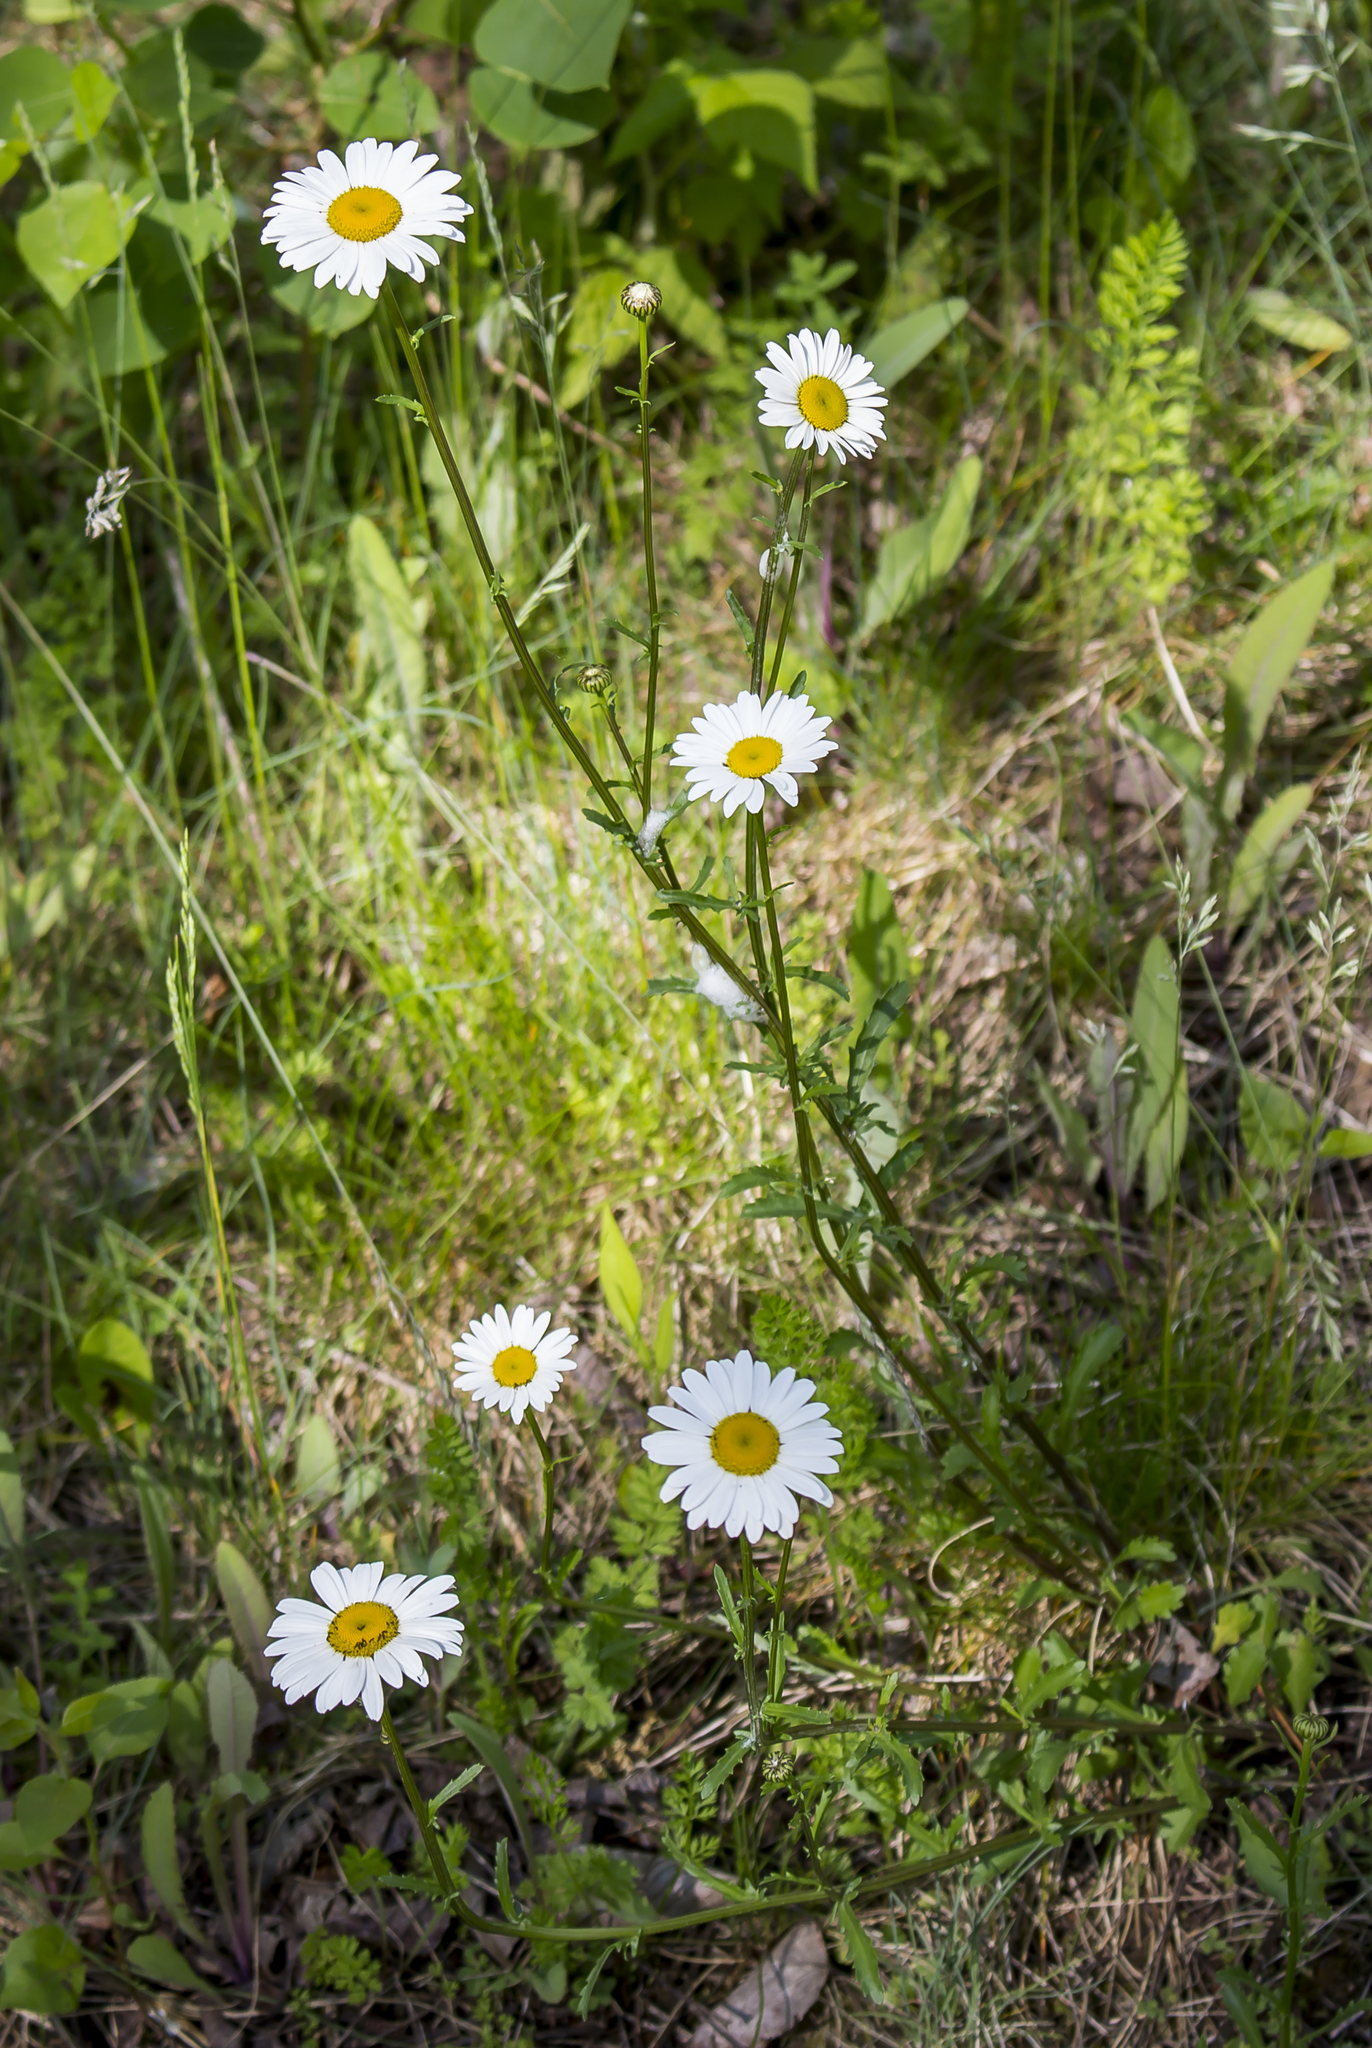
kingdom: Plantae
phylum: Tracheophyta
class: Magnoliopsida
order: Asterales
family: Asteraceae
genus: Leucanthemum
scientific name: Leucanthemum vulgare
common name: Oxeye daisy
